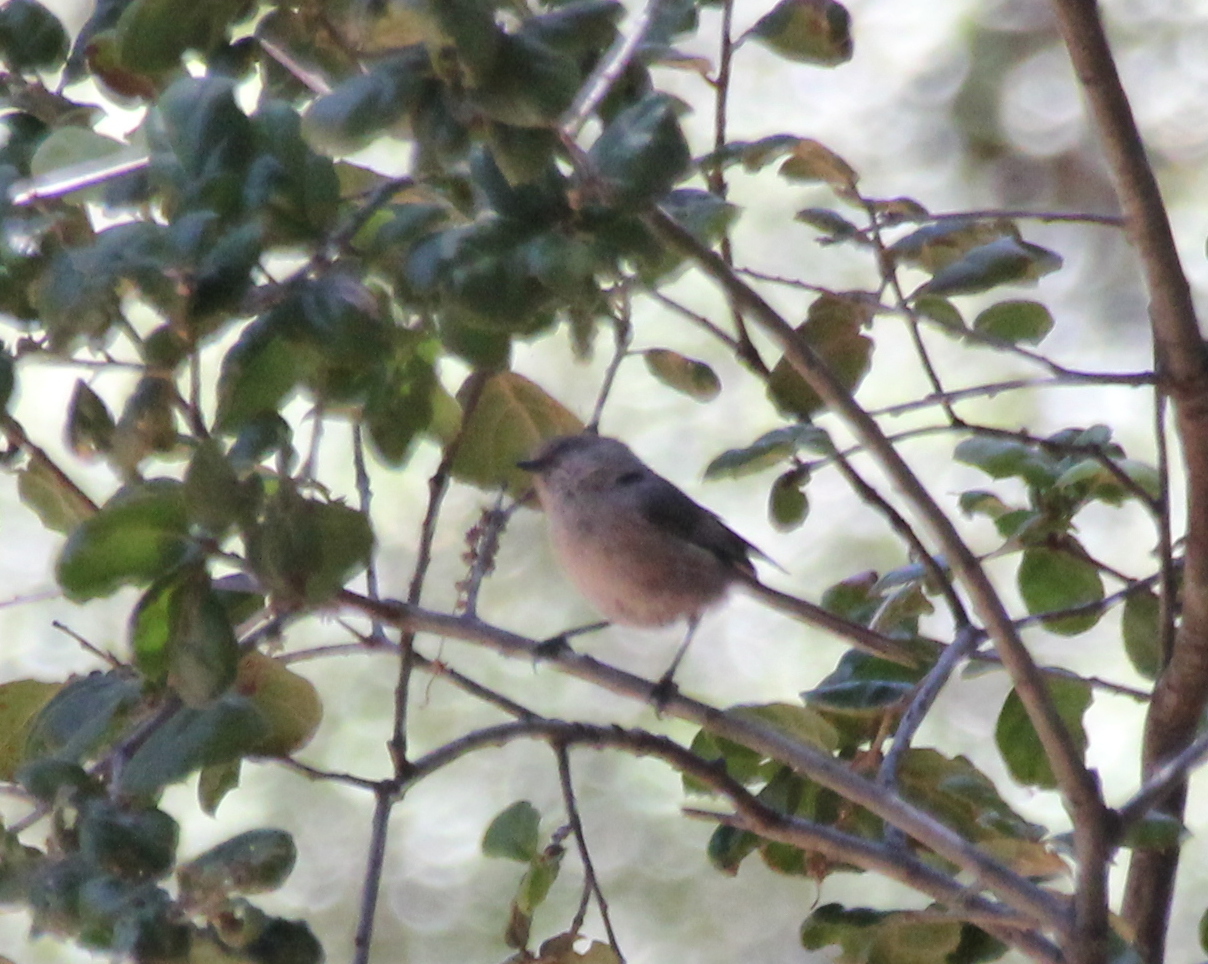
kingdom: Animalia
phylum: Chordata
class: Aves
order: Passeriformes
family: Aegithalidae
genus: Psaltriparus
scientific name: Psaltriparus minimus
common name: American bushtit
